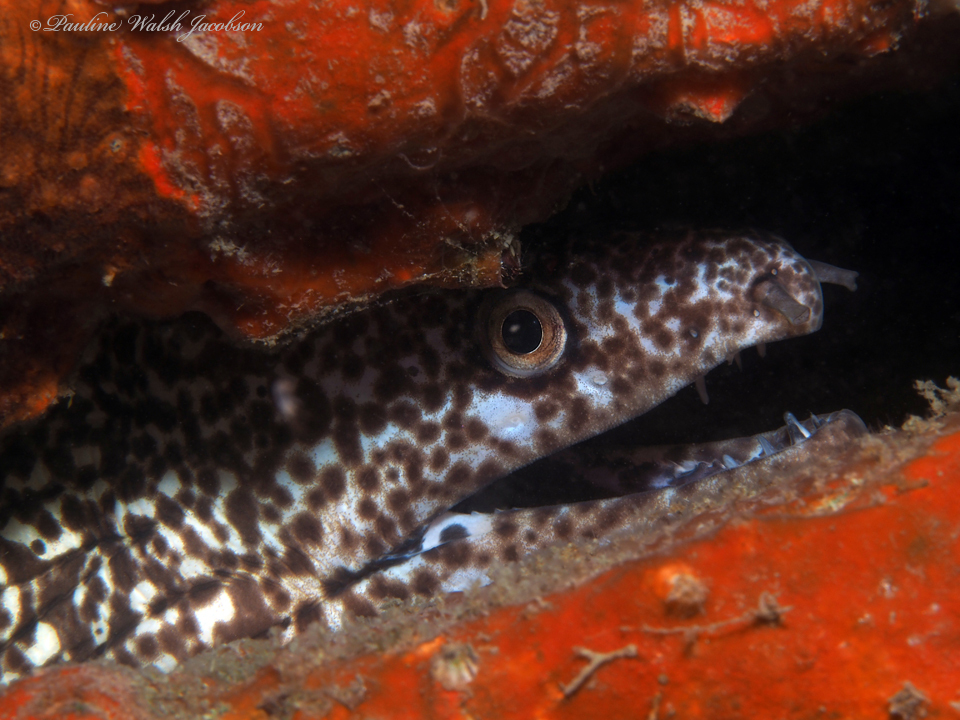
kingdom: Animalia
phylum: Chordata
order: Anguilliformes
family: Muraenidae
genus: Gymnothorax
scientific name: Gymnothorax moringa
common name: Spotted moray
